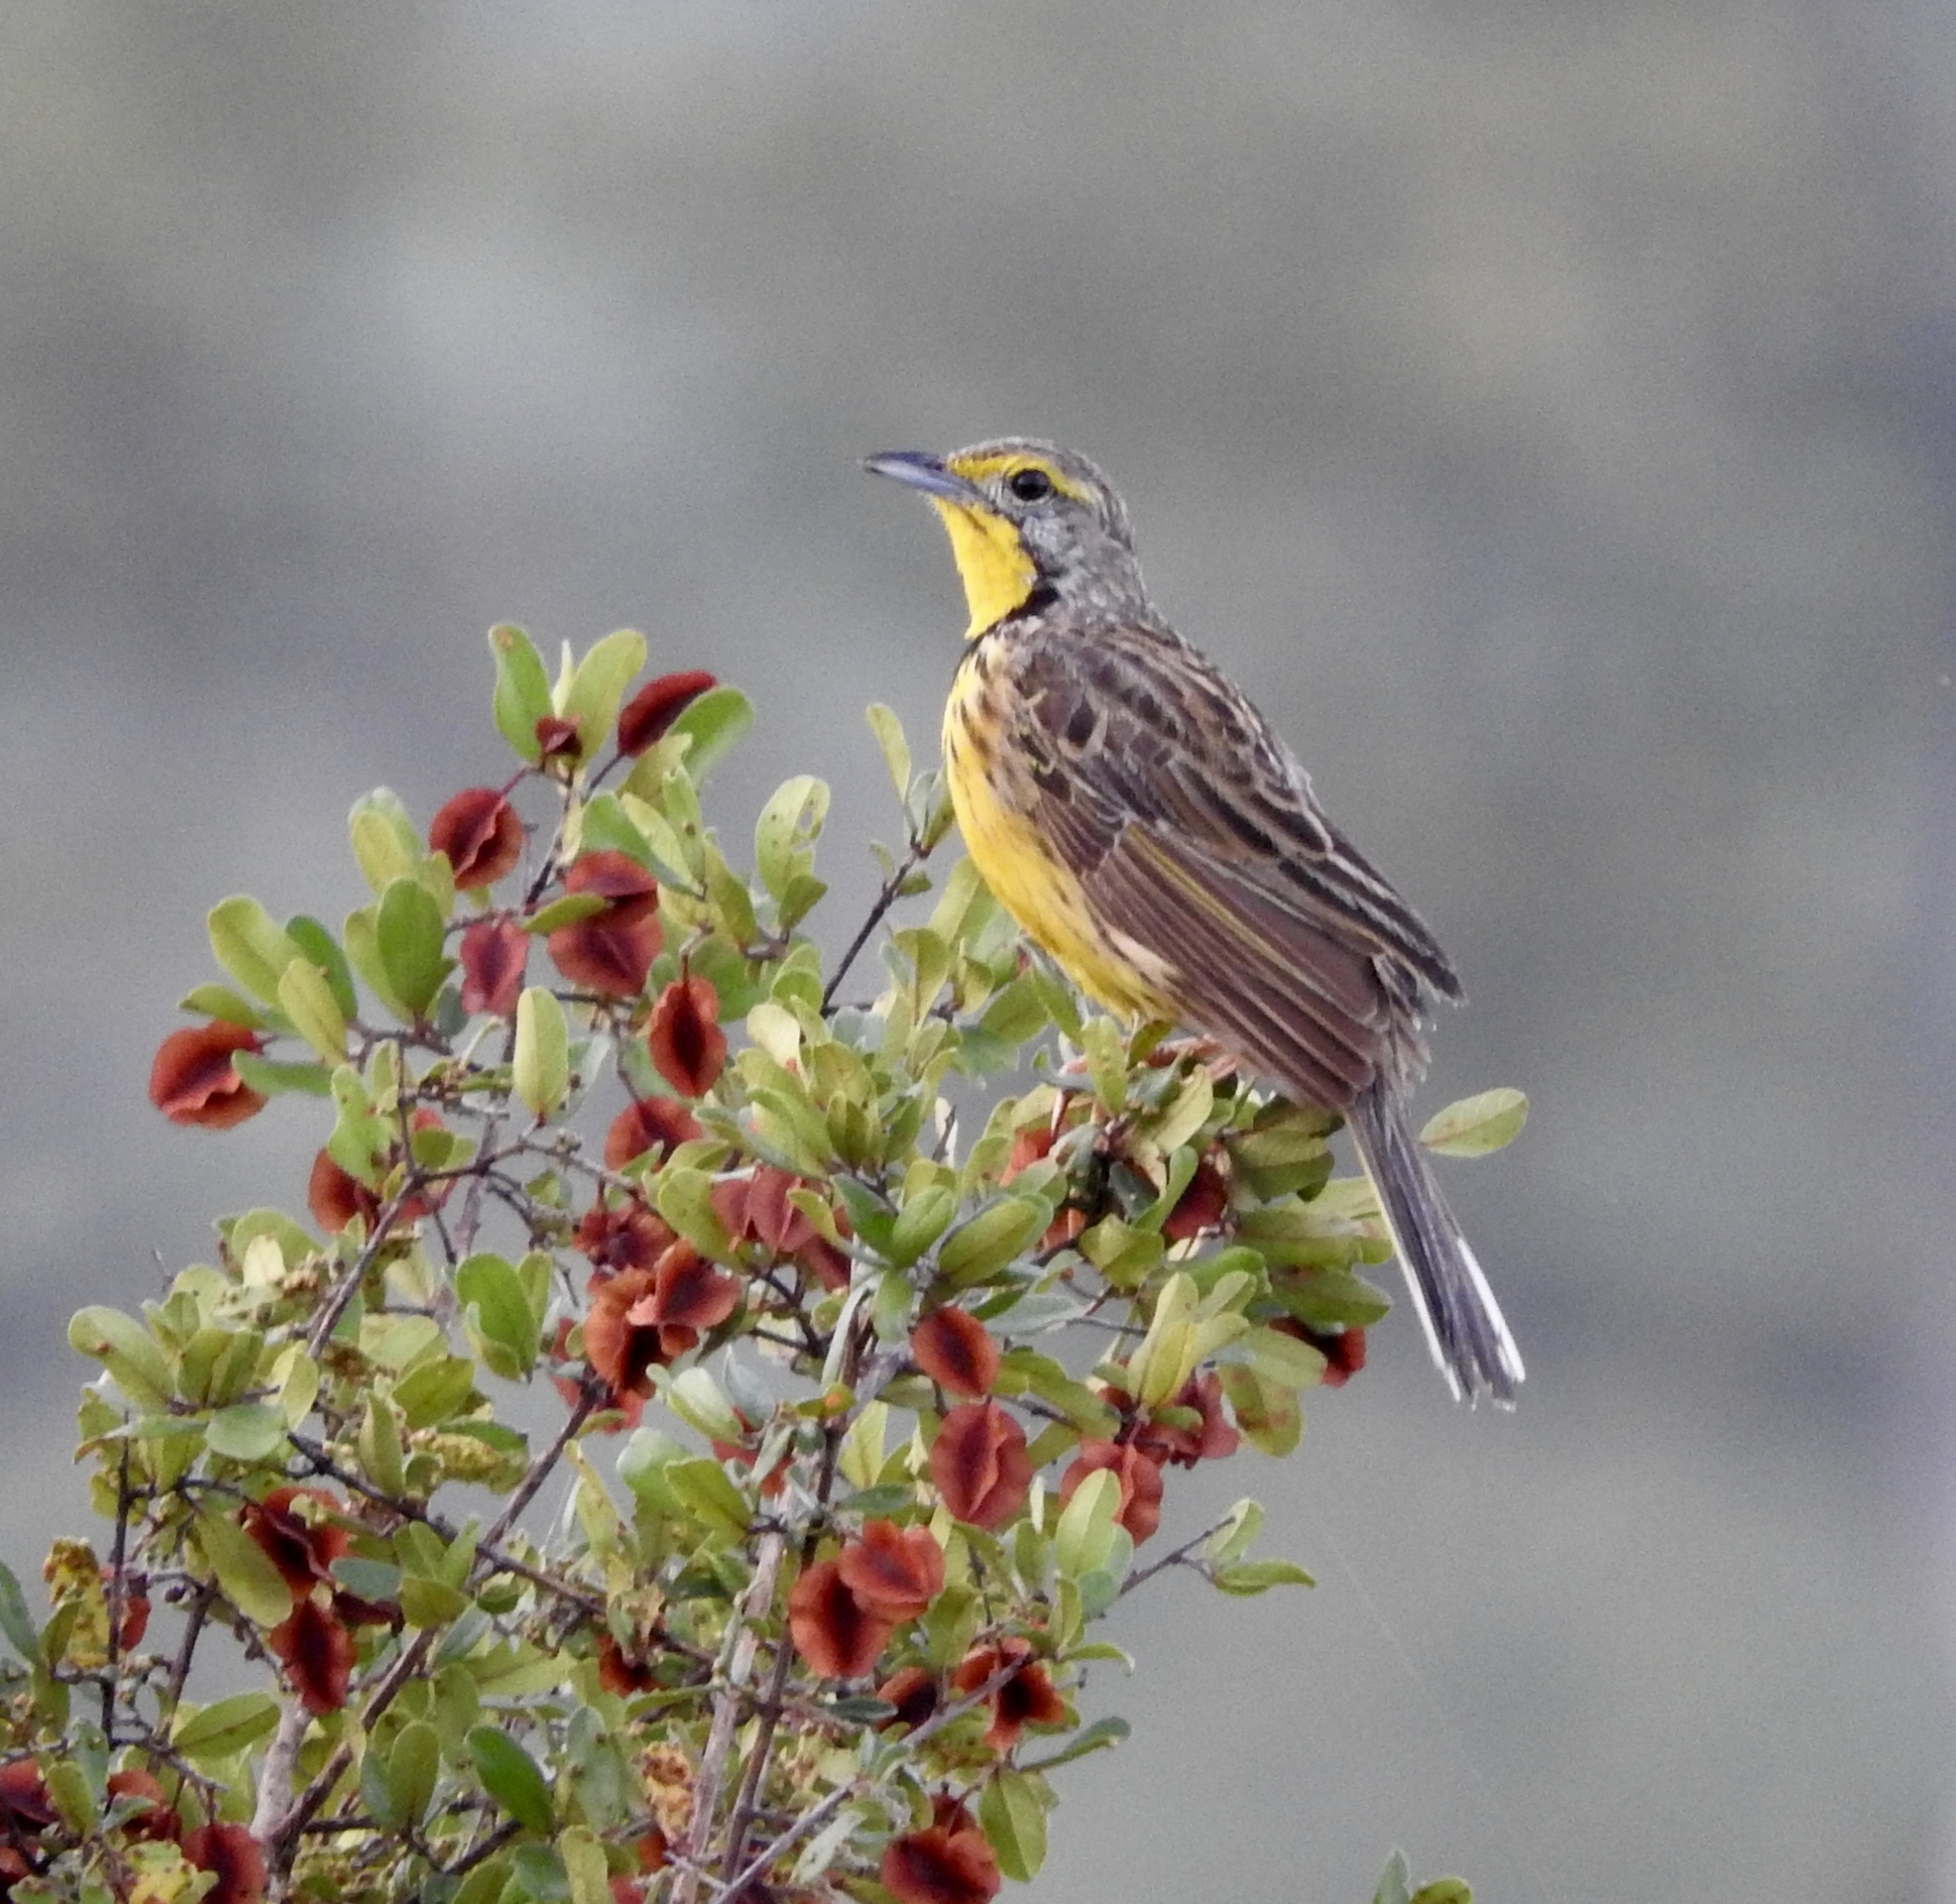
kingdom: Animalia
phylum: Chordata
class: Aves
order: Passeriformes
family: Motacillidae
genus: Macronyx
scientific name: Macronyx croceus
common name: Yellow-throated longclaw
